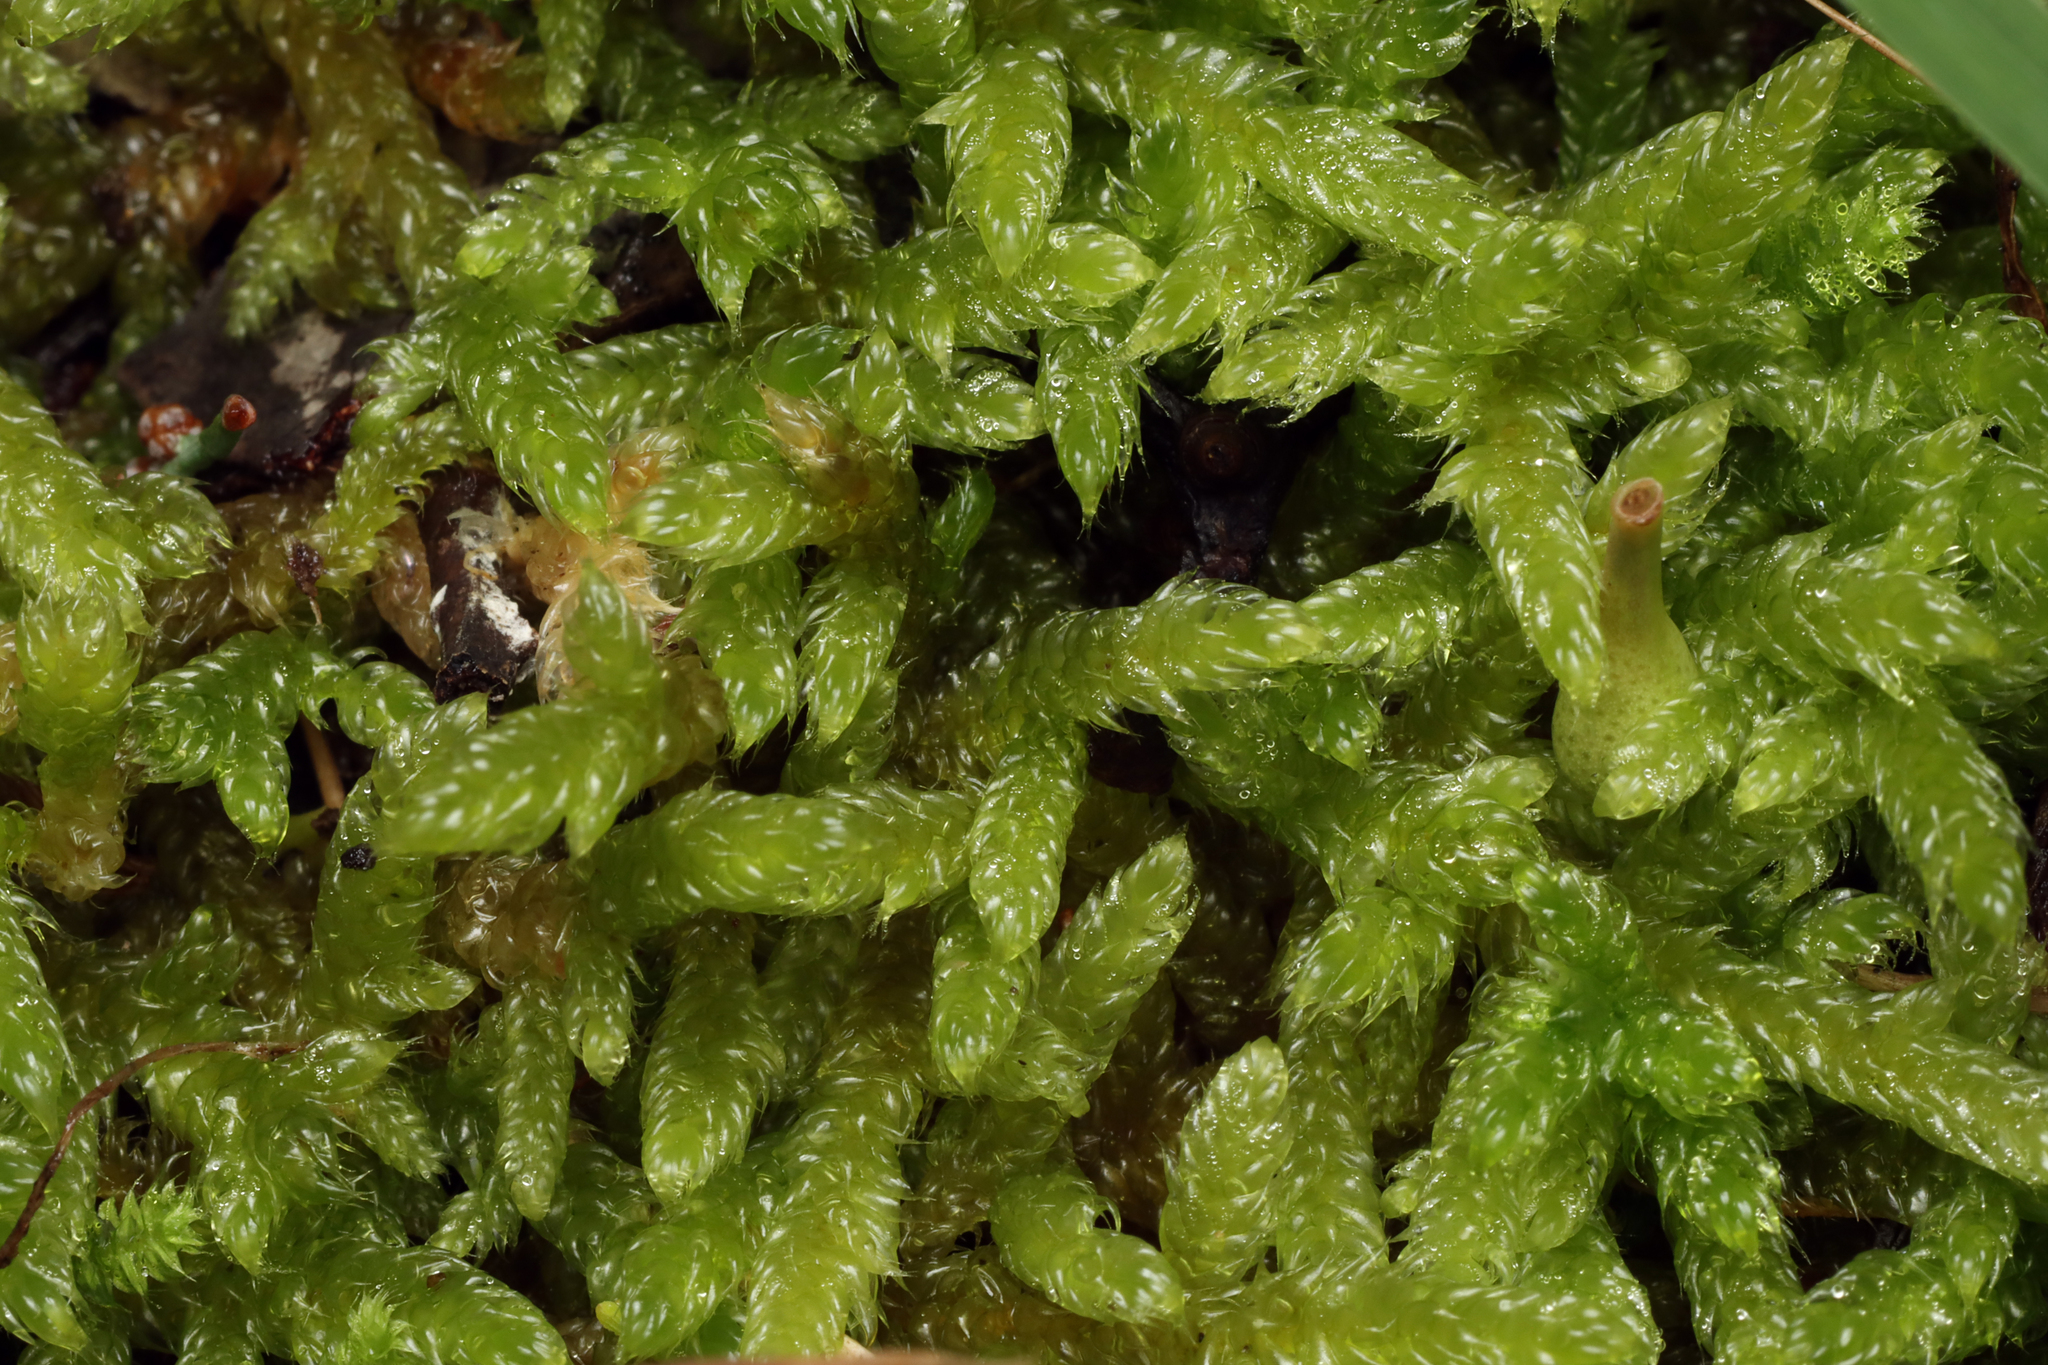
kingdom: Plantae
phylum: Bryophyta
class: Bryopsida
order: Hypnales
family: Hypnaceae
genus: Hypnum
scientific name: Hypnum cupressiforme
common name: Cypress-leaved plait-moss
